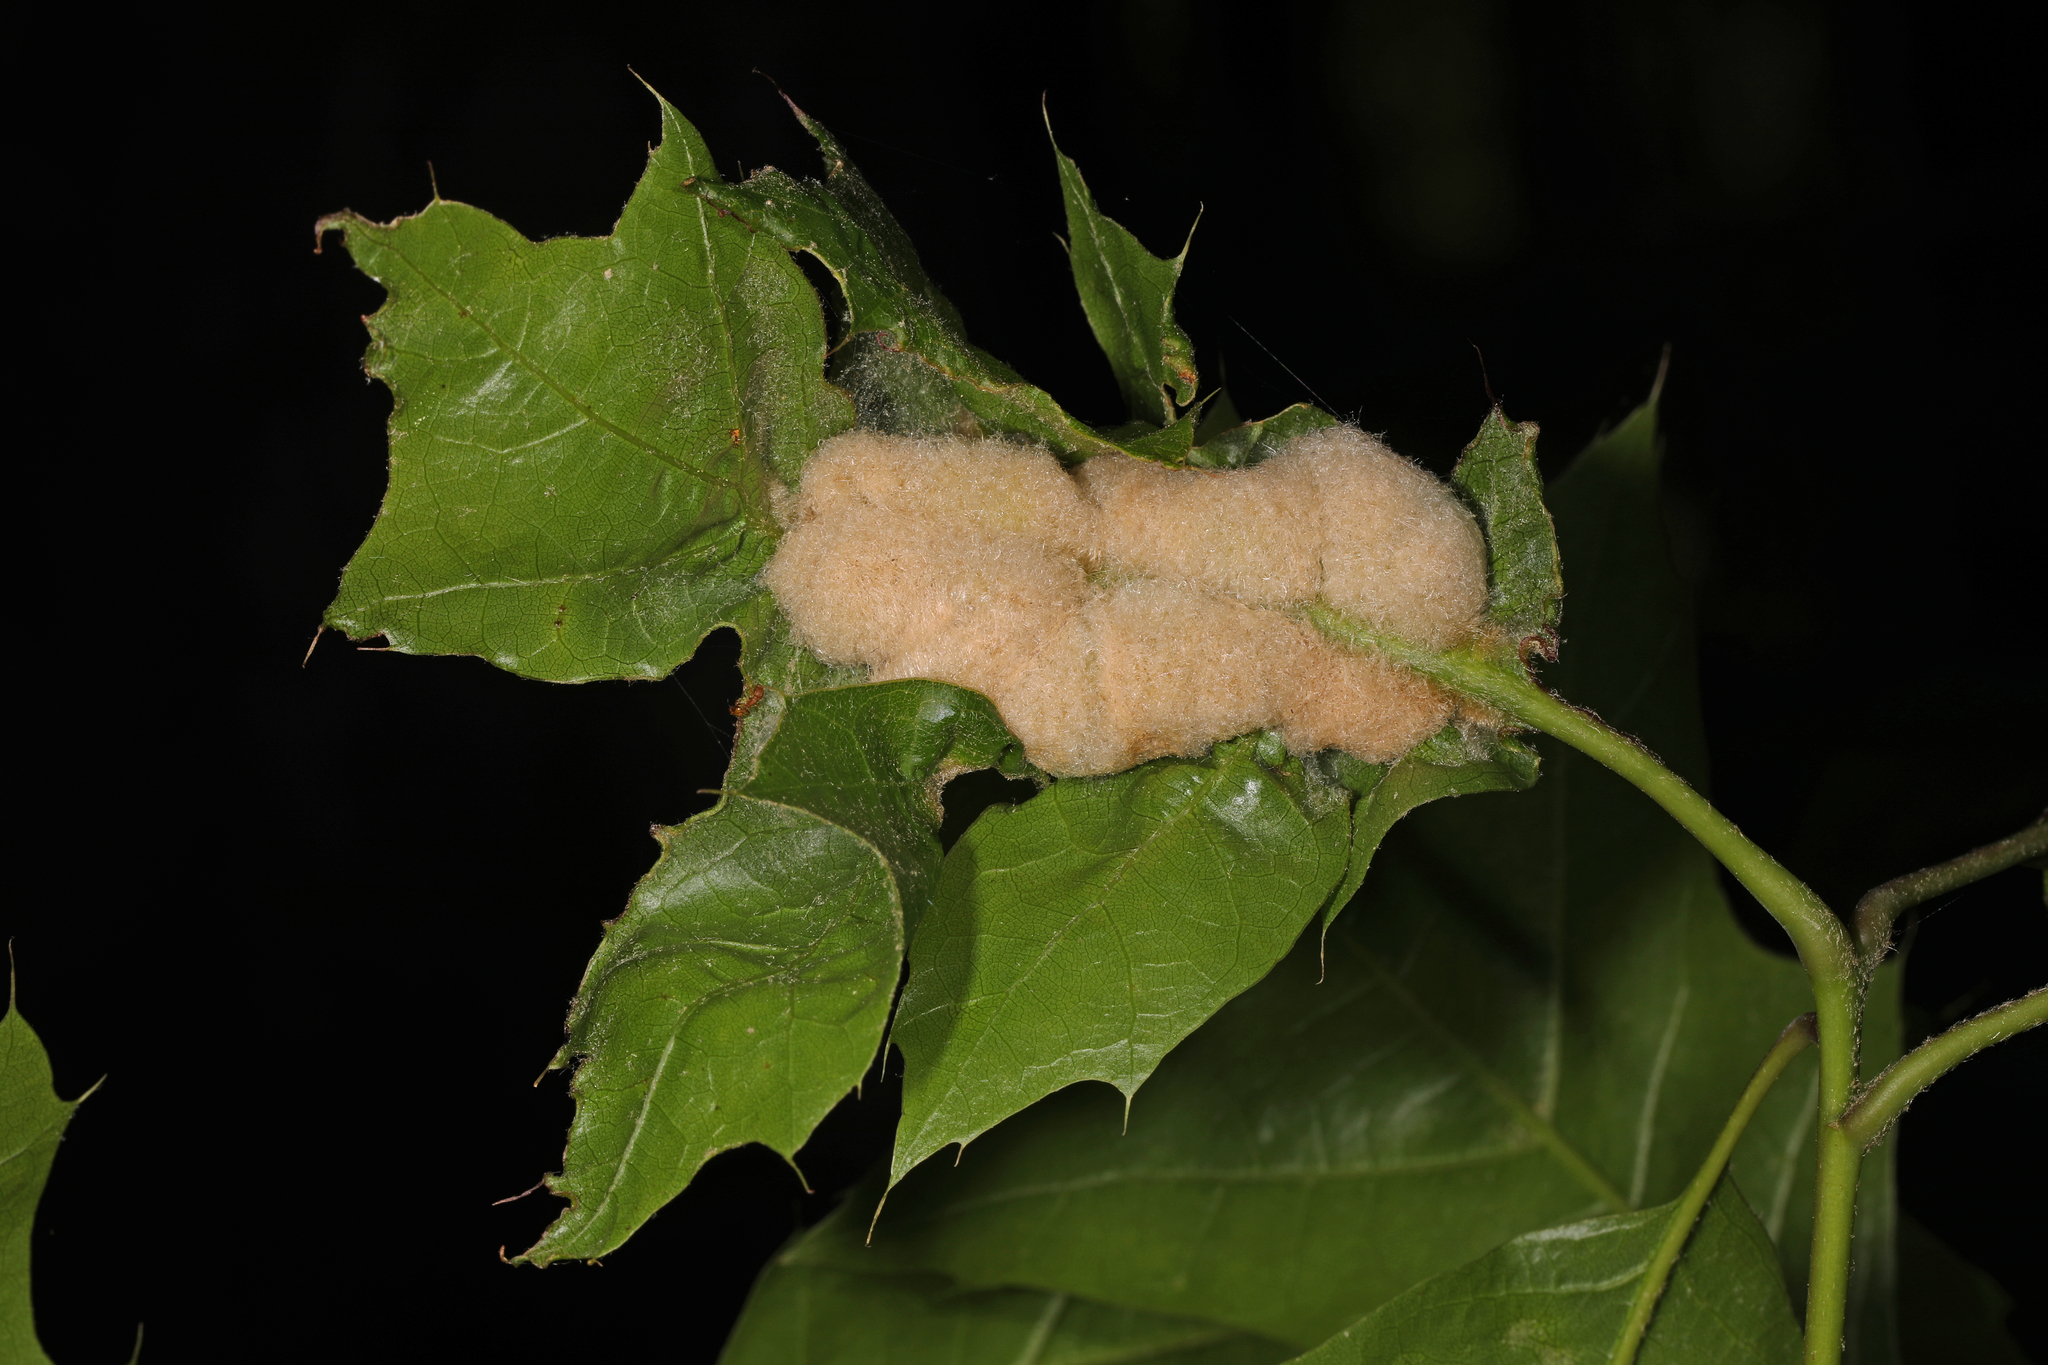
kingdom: Animalia
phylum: Arthropoda
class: Insecta
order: Diptera
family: Cecidomyiidae
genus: Macrodiplosis
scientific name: Macrodiplosis niveipila
